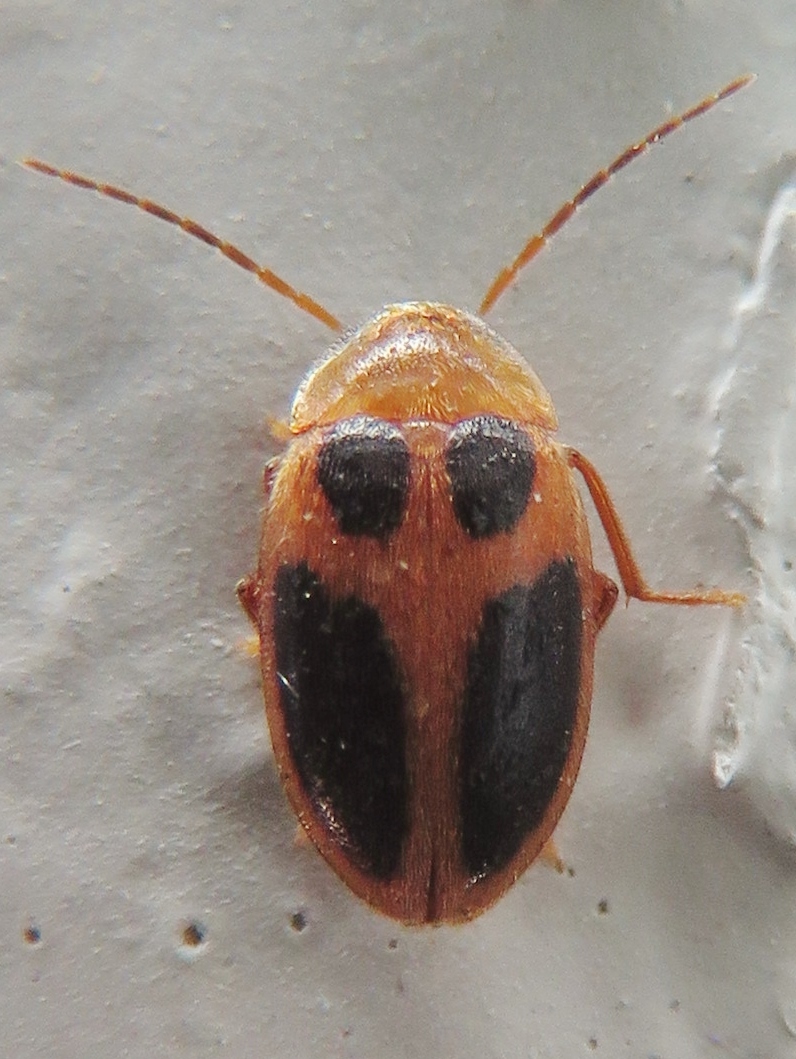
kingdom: Animalia
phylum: Arthropoda
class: Insecta
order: Coleoptera
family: Scirtidae
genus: Sacodes
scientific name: Sacodes pulchella
